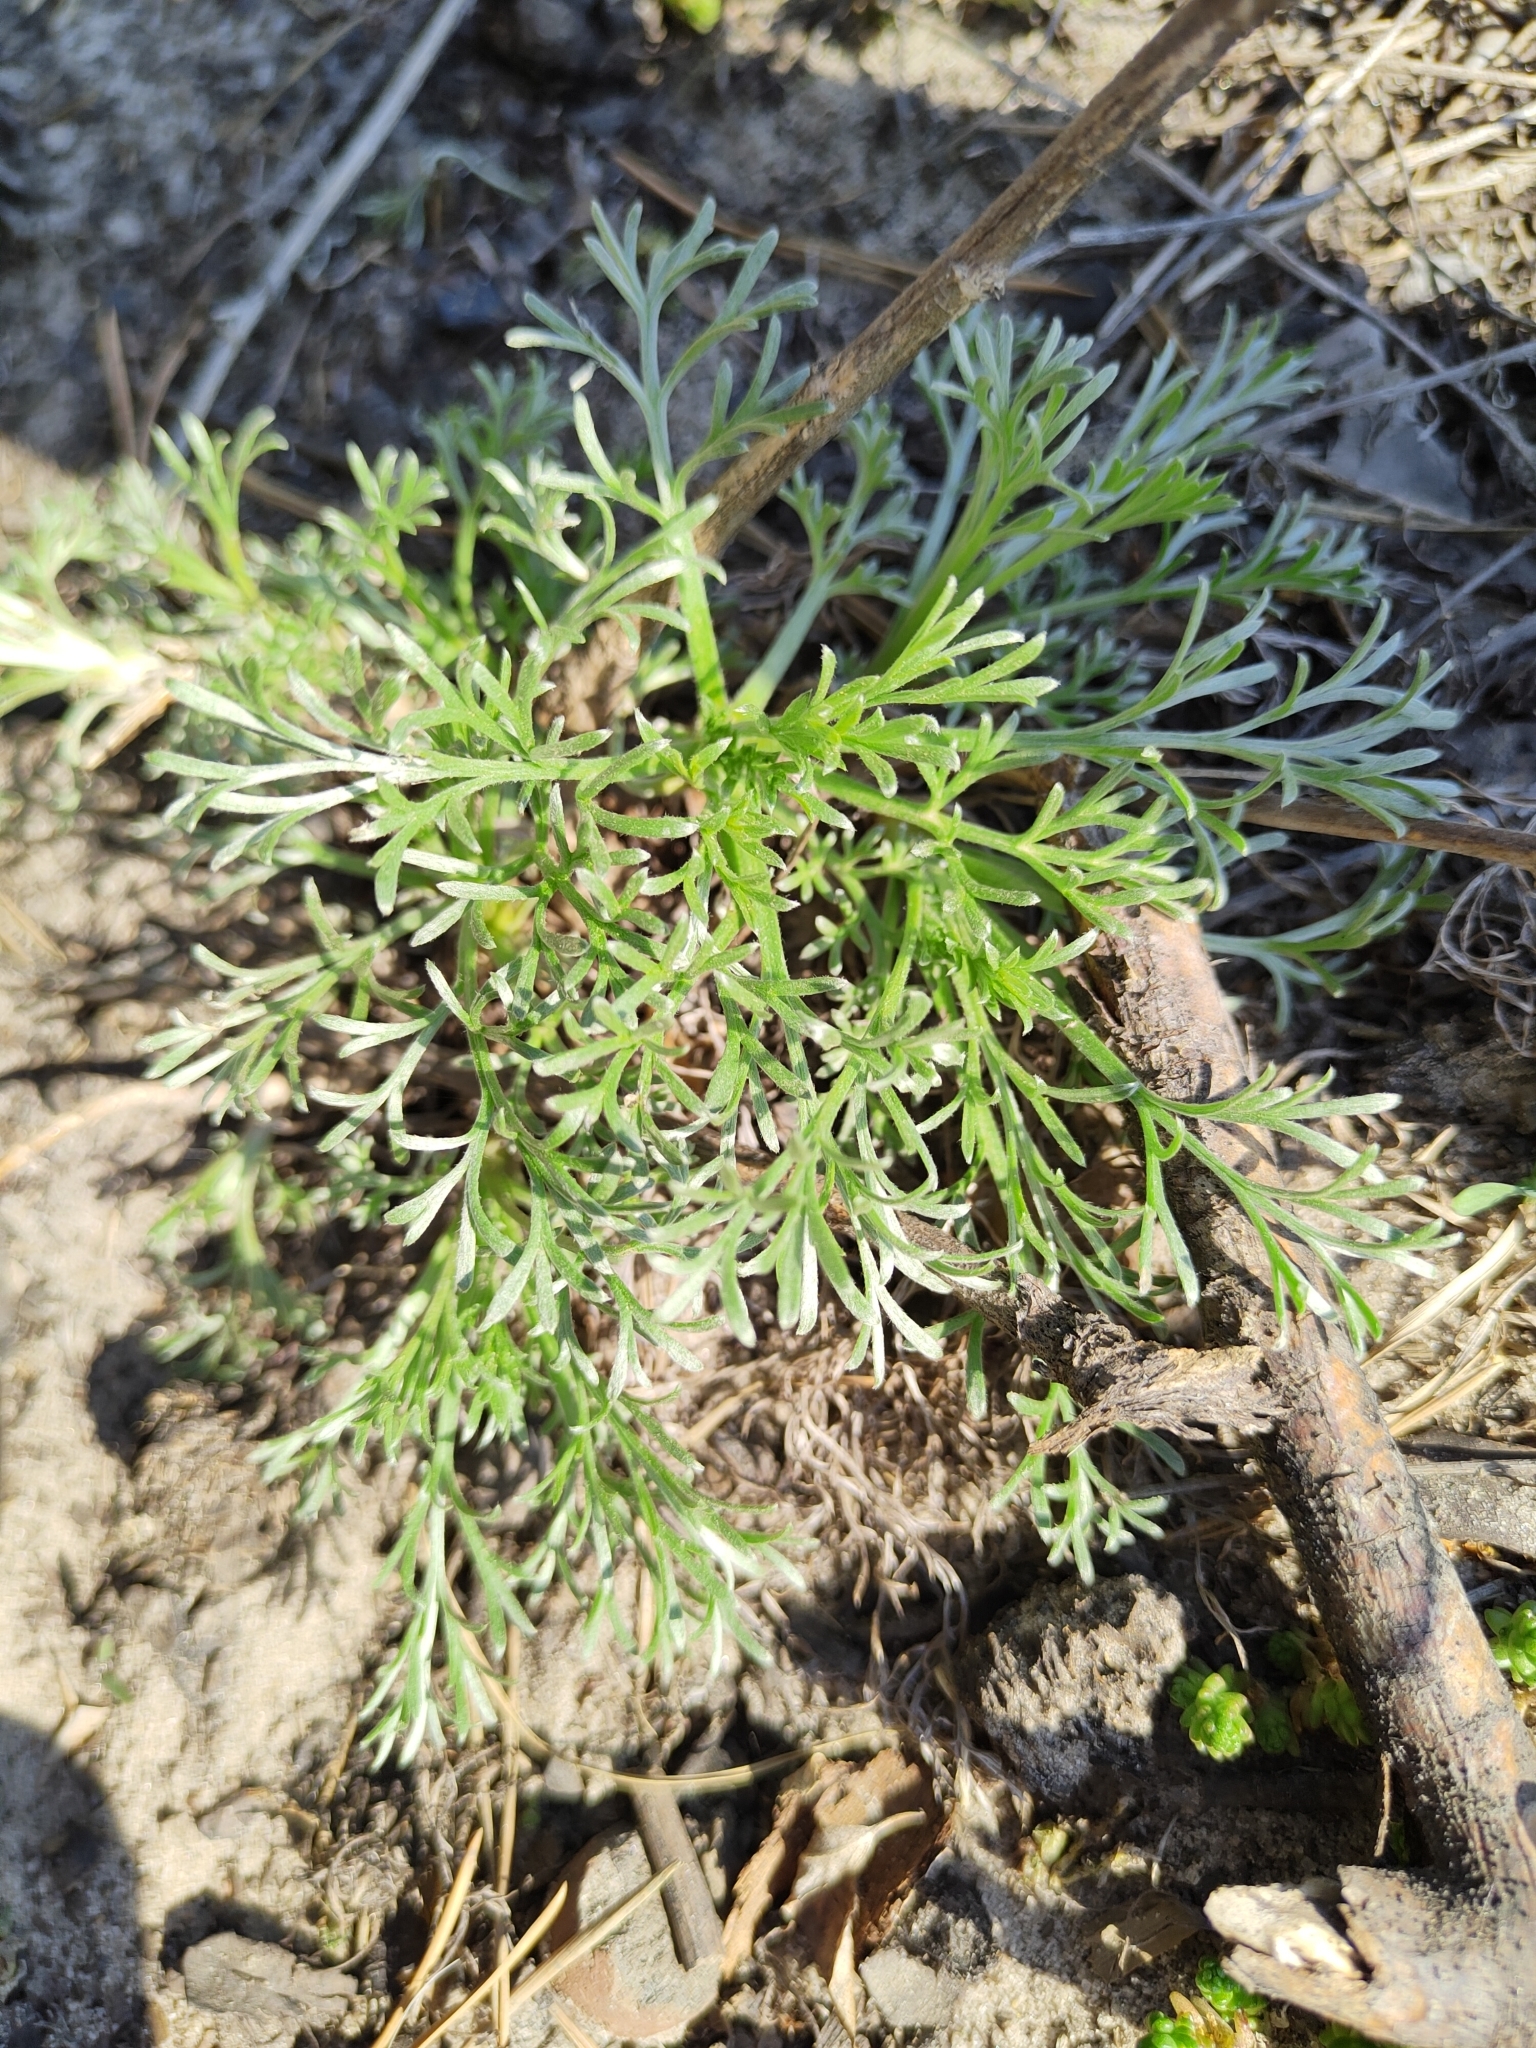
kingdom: Plantae
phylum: Tracheophyta
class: Magnoliopsida
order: Asterales
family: Asteraceae
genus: Artemisia
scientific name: Artemisia campestris
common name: Field wormwood
